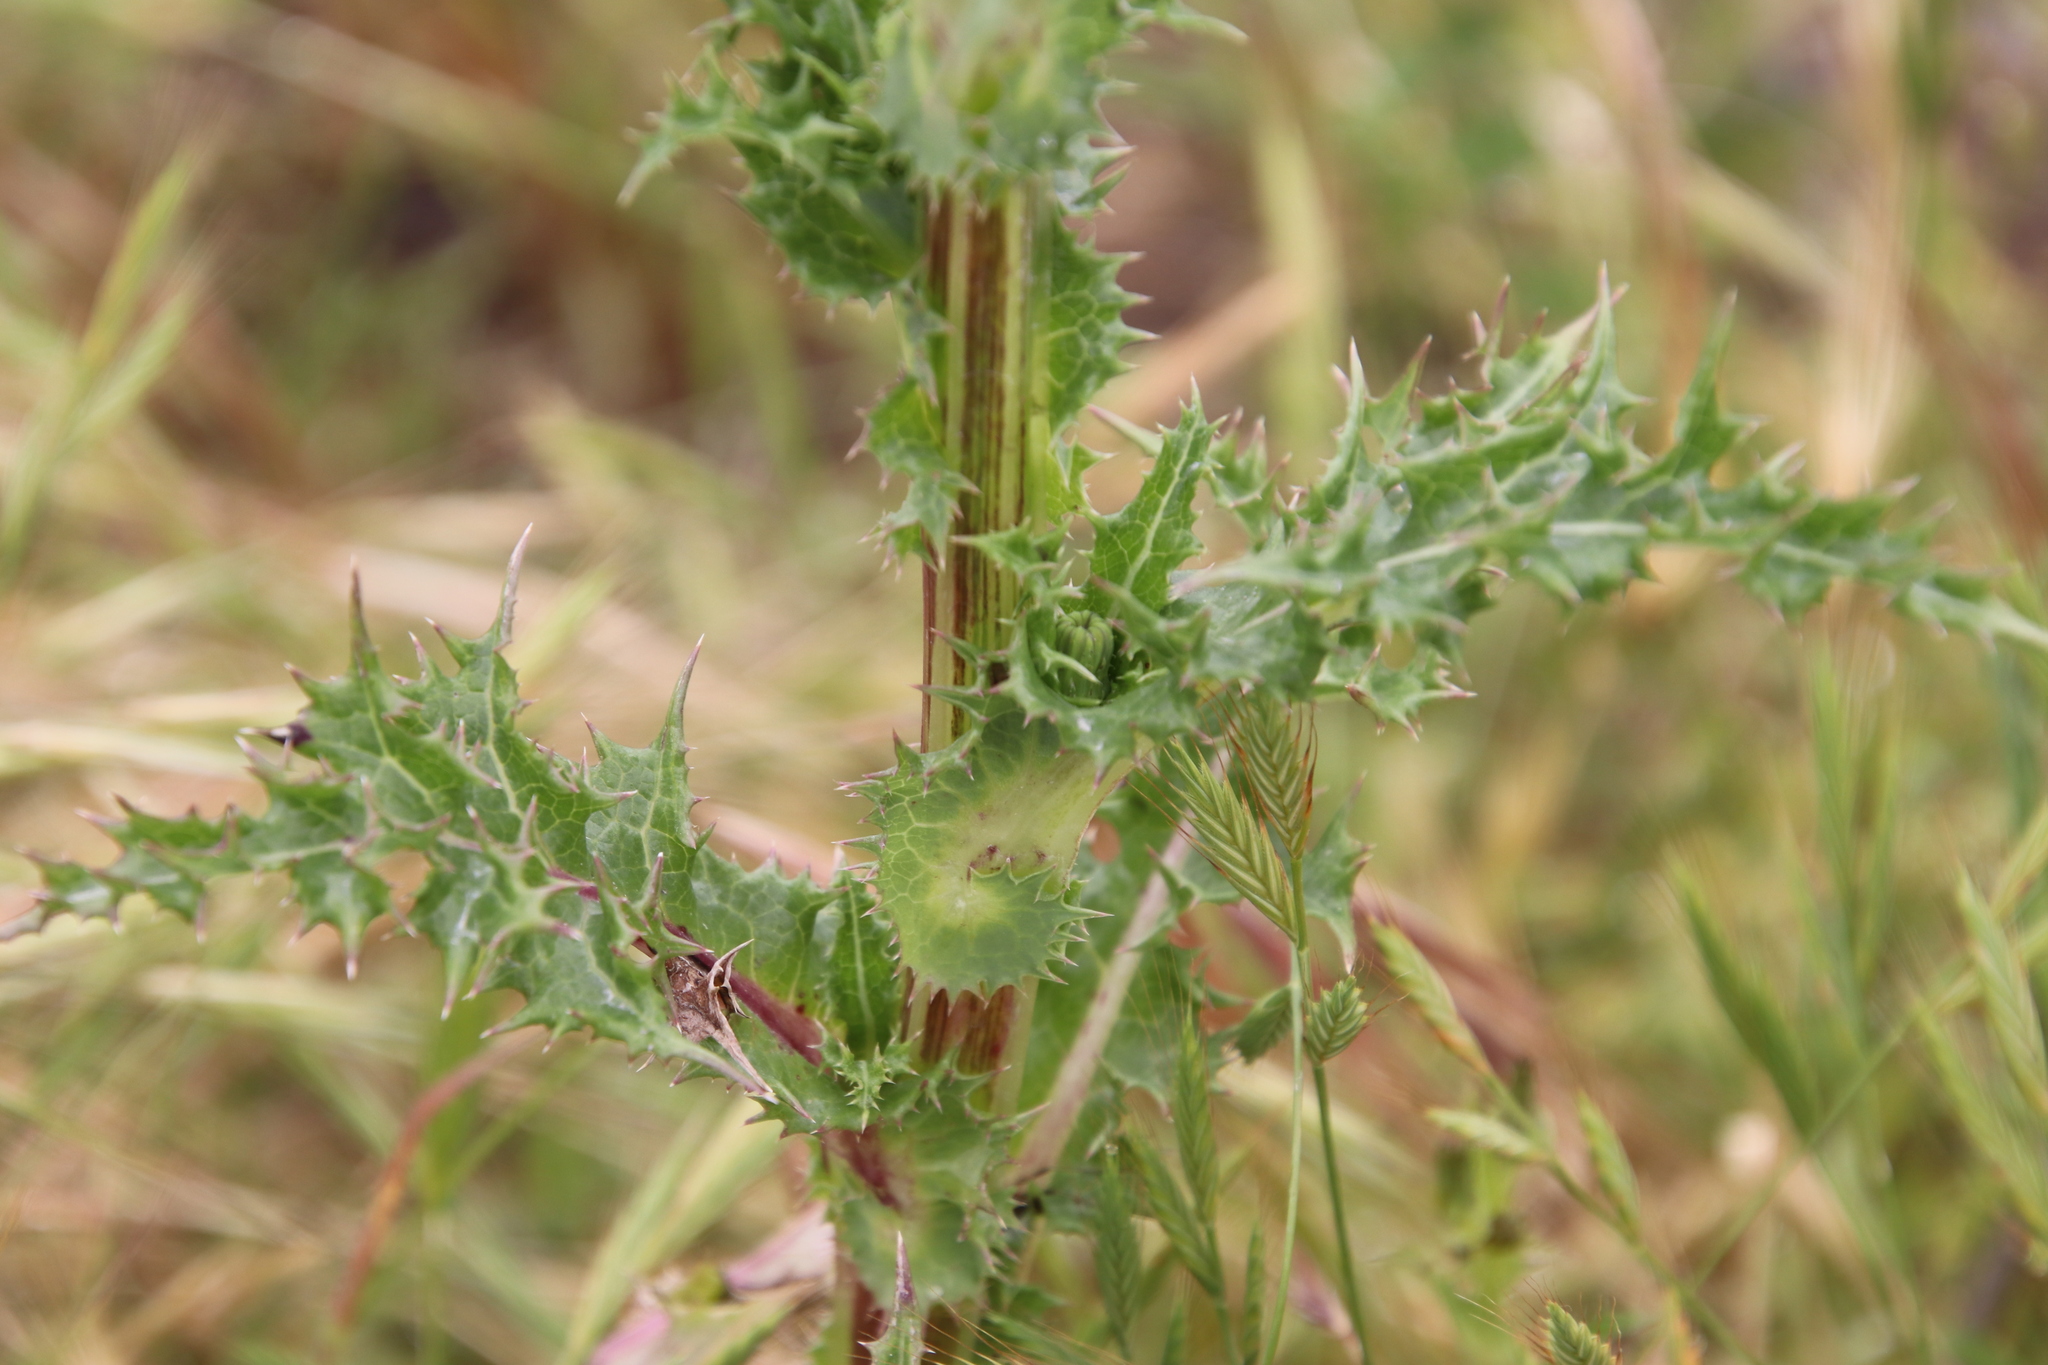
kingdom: Plantae
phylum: Tracheophyta
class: Magnoliopsida
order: Asterales
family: Asteraceae
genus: Sonchus
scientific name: Sonchus asper
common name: Prickly sow-thistle
